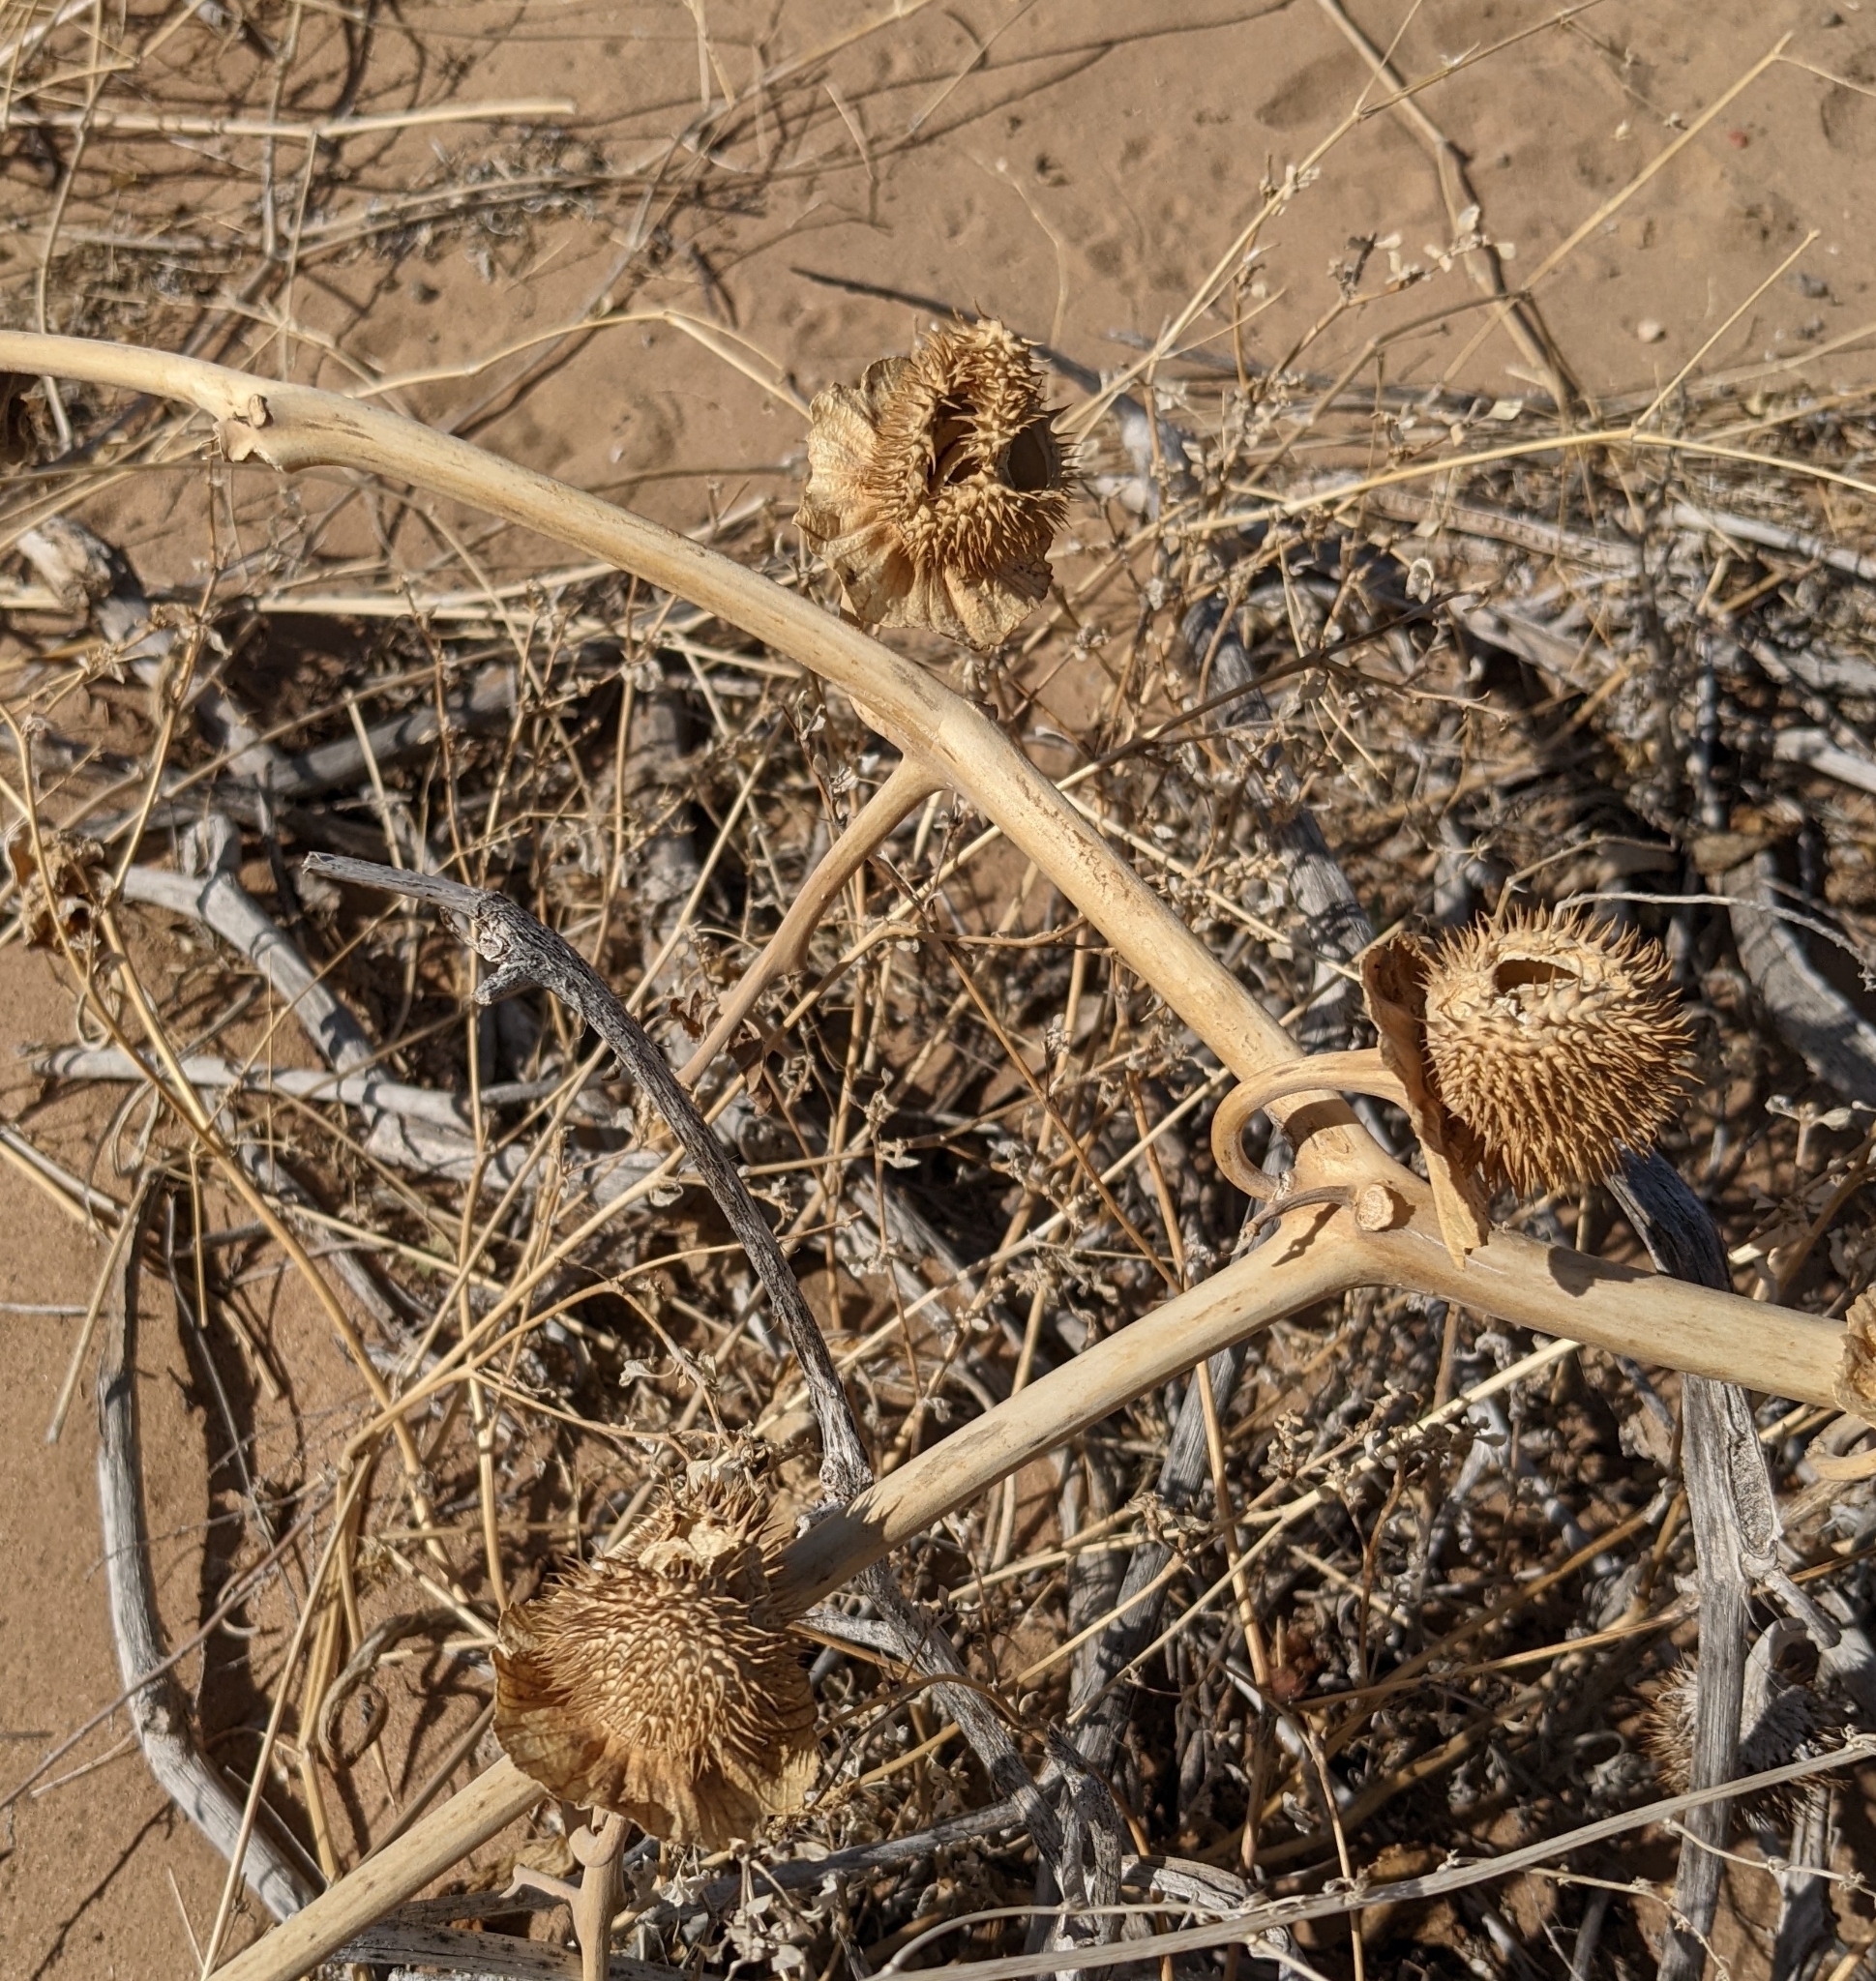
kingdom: Plantae
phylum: Tracheophyta
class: Magnoliopsida
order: Solanales
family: Solanaceae
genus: Datura
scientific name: Datura wrightii
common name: Sacred thorn-apple
